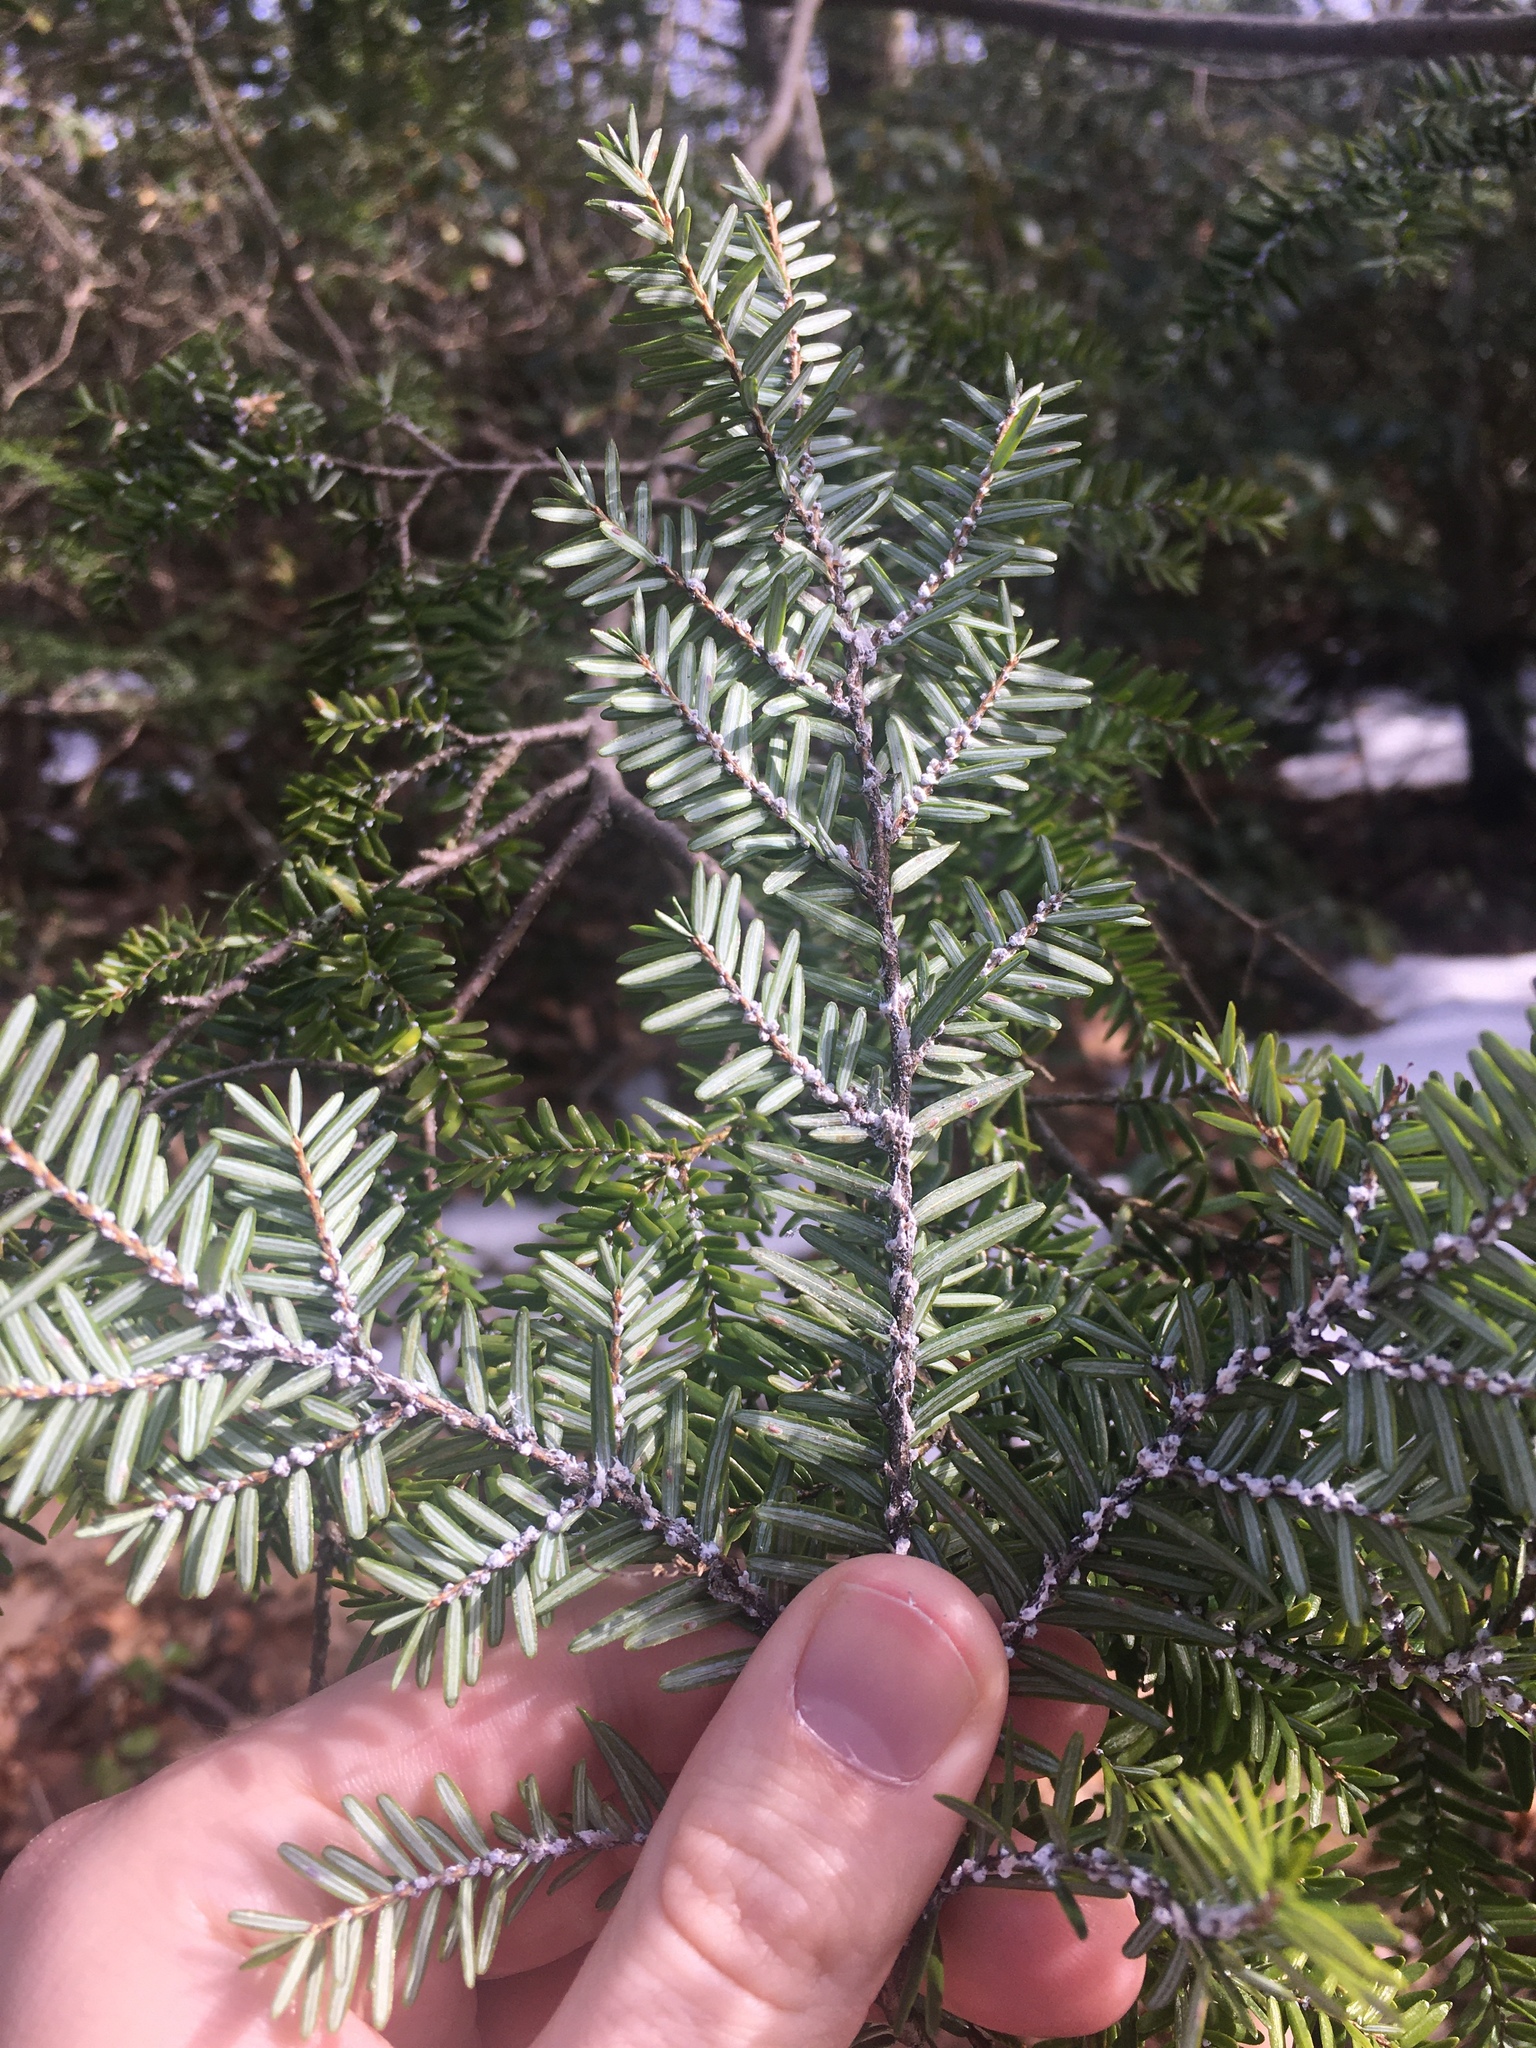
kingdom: Animalia
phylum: Arthropoda
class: Insecta
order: Hemiptera
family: Adelgidae
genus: Adelges
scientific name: Adelges tsugae
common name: Hemlock woolly adelgid
